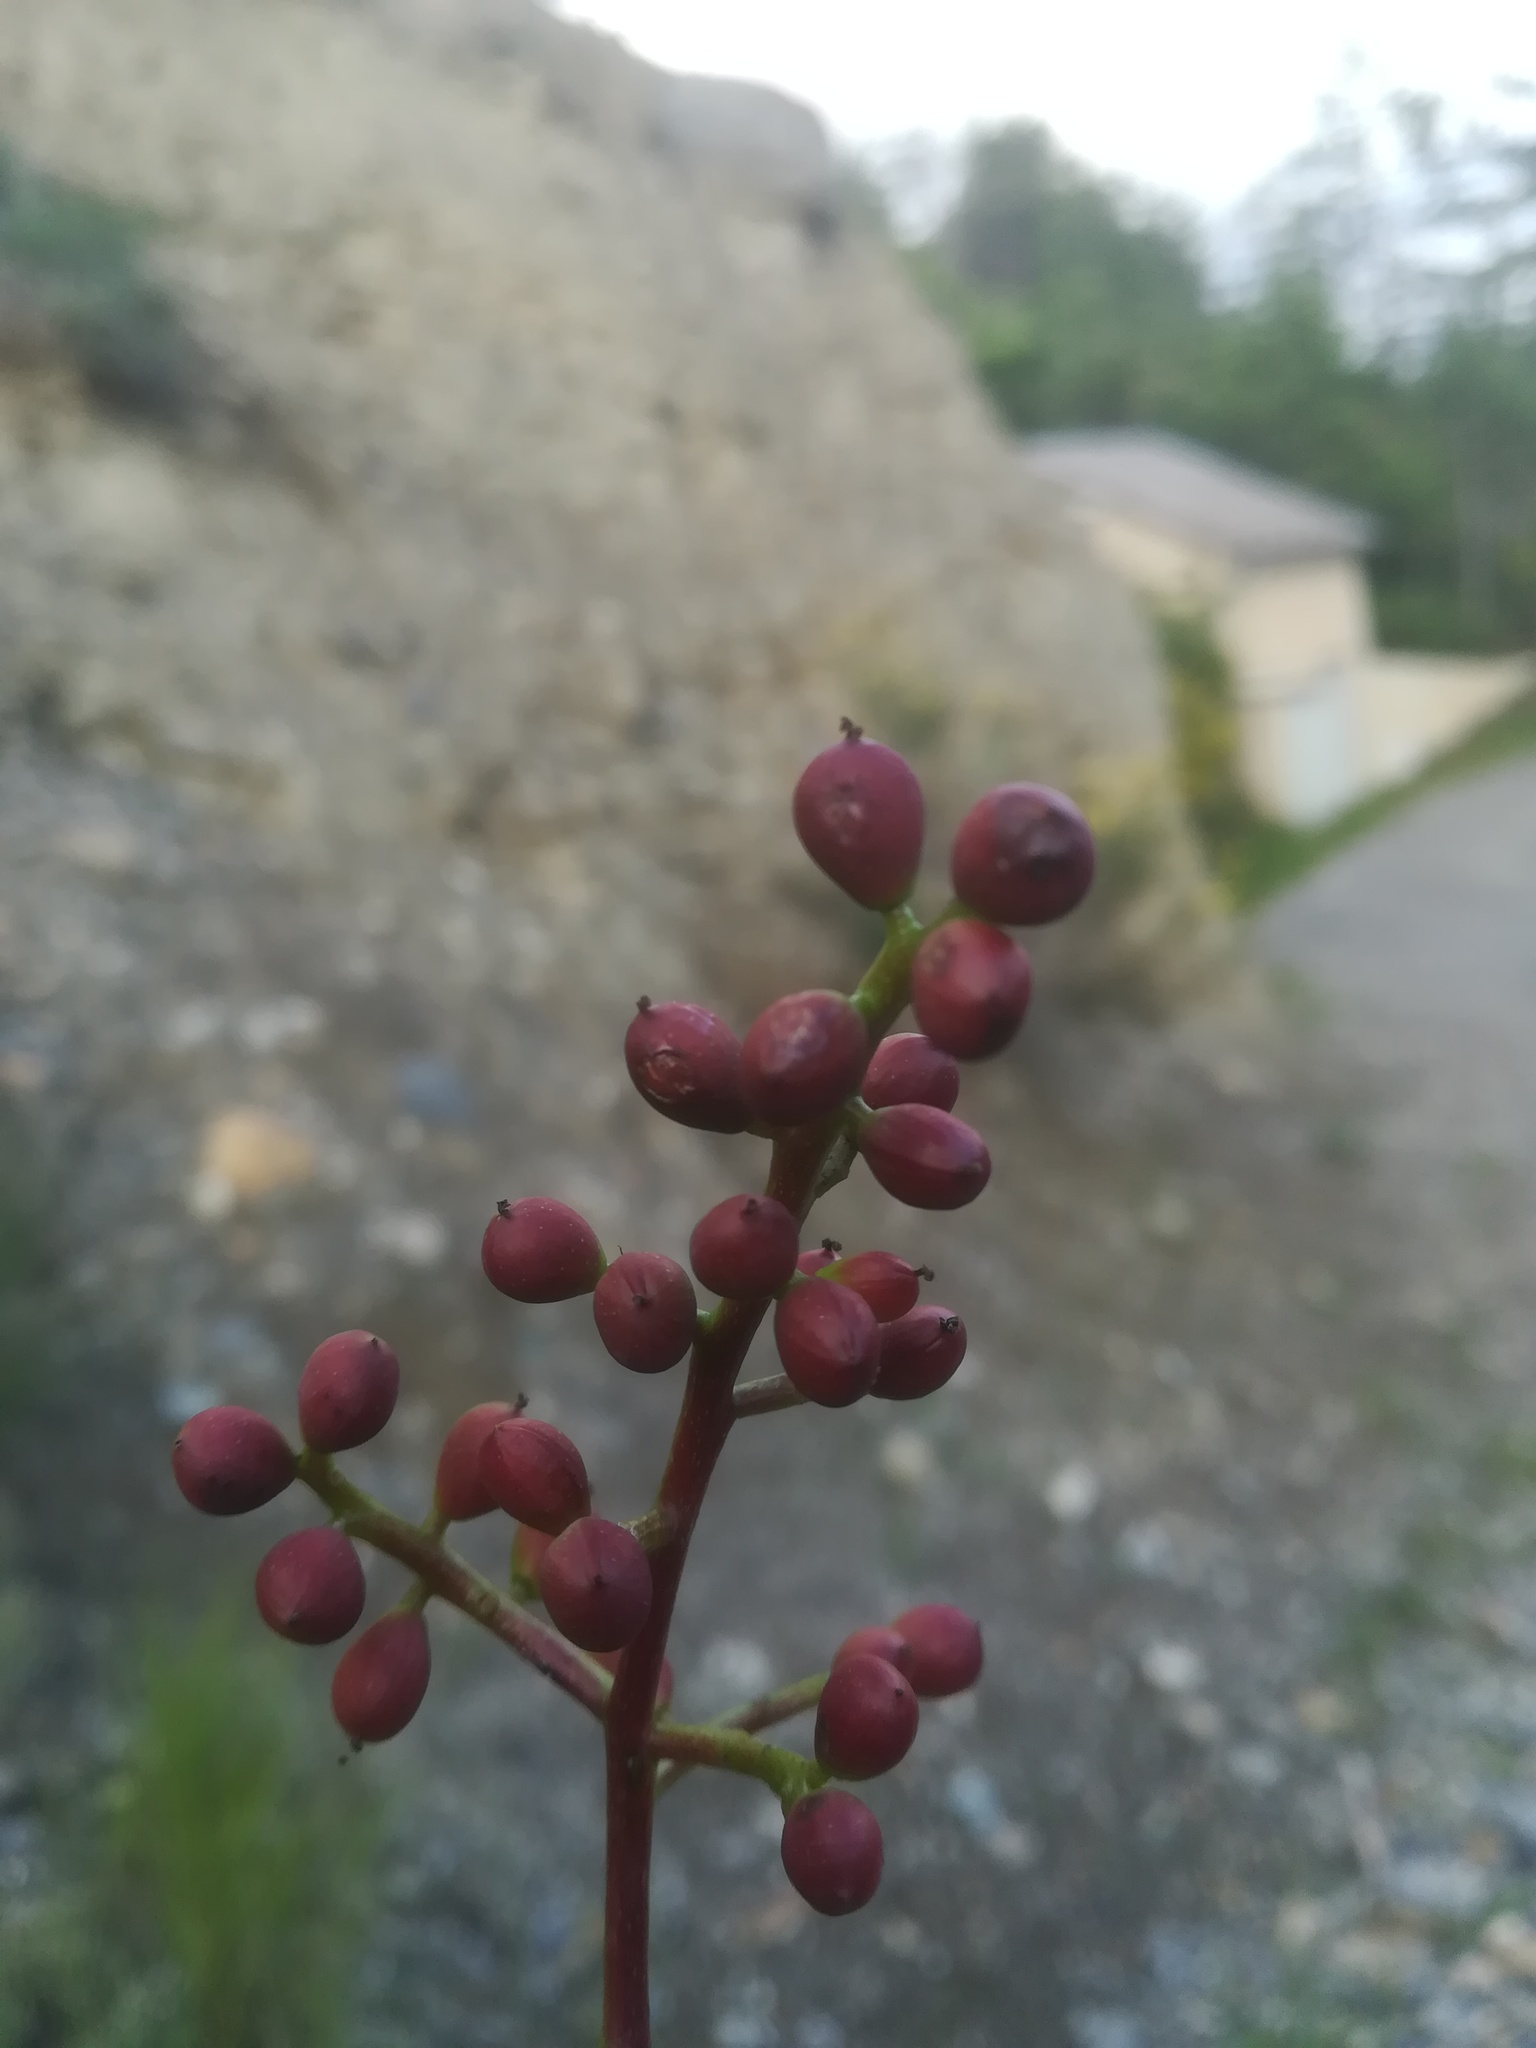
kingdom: Plantae
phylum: Tracheophyta
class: Magnoliopsida
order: Sapindales
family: Anacardiaceae
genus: Pistacia
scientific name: Pistacia terebinthus
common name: Terebinth
